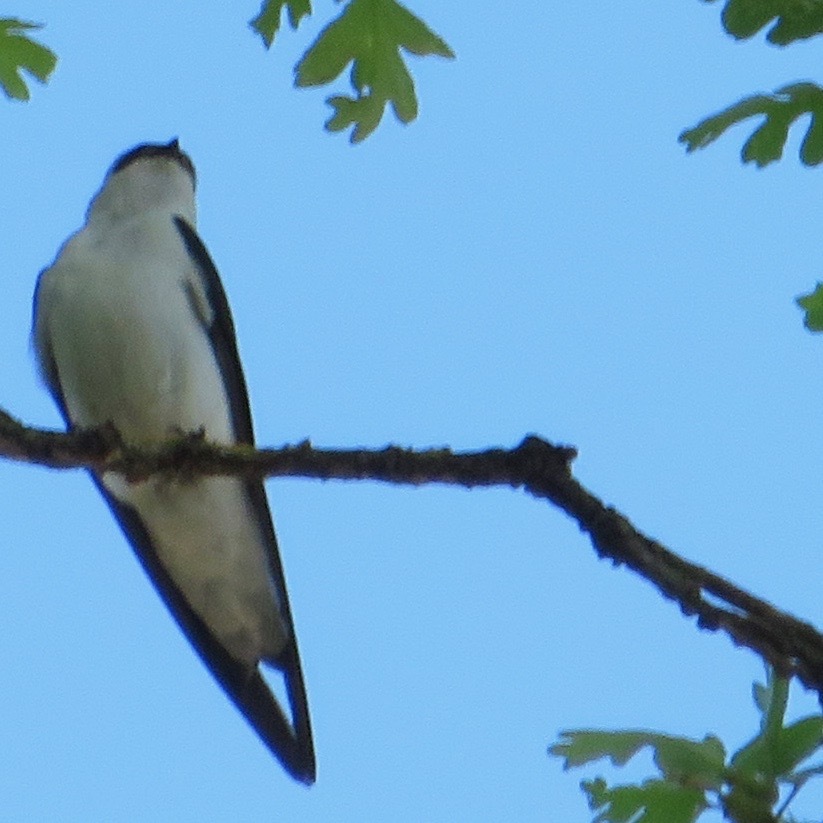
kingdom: Animalia
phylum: Chordata
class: Aves
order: Passeriformes
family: Hirundinidae
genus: Tachycineta
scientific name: Tachycineta thalassina
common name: Violet-green swallow
